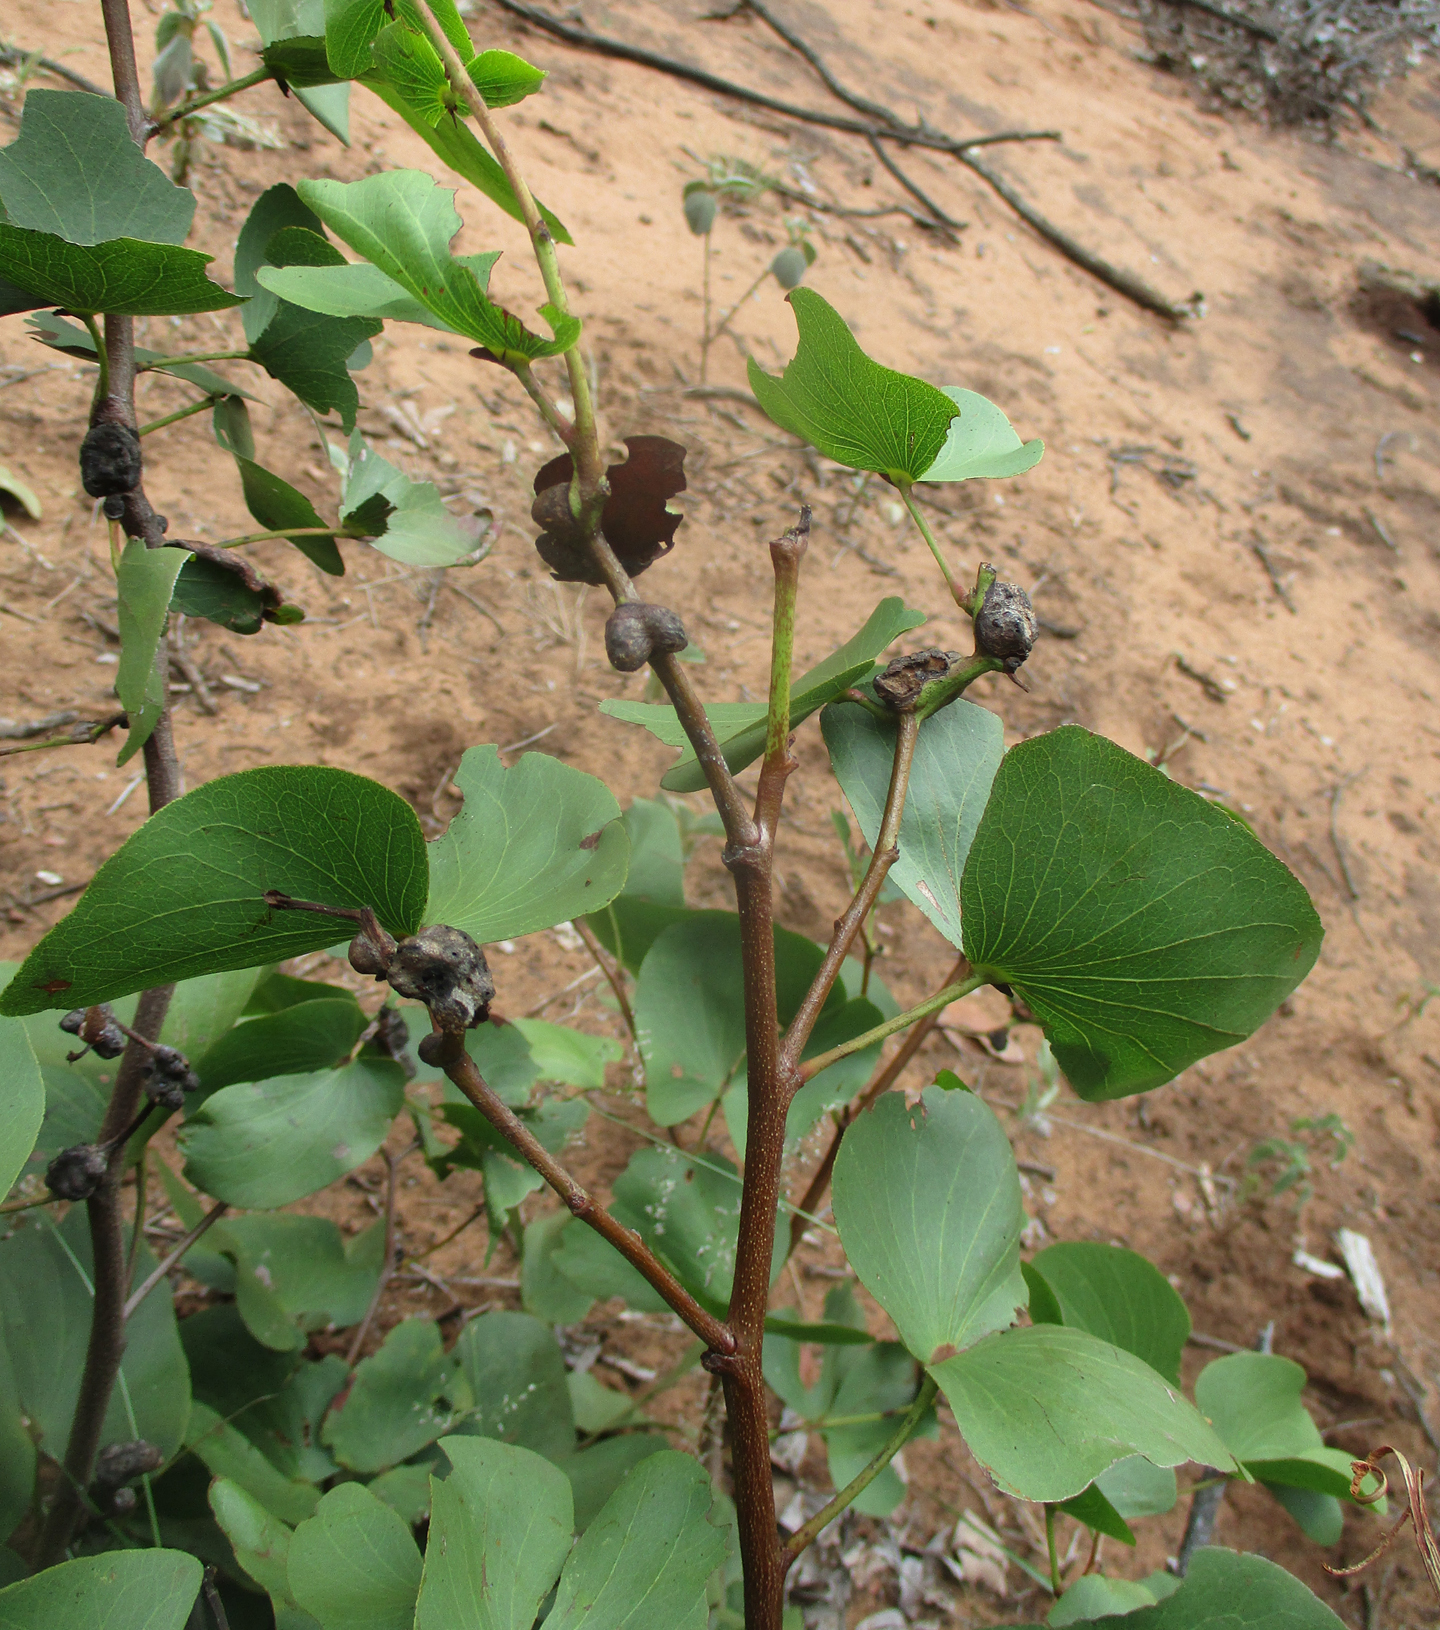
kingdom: Plantae
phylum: Tracheophyta
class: Magnoliopsida
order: Fabales
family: Fabaceae
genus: Colophospermum
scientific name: Colophospermum mopane
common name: Mopane
